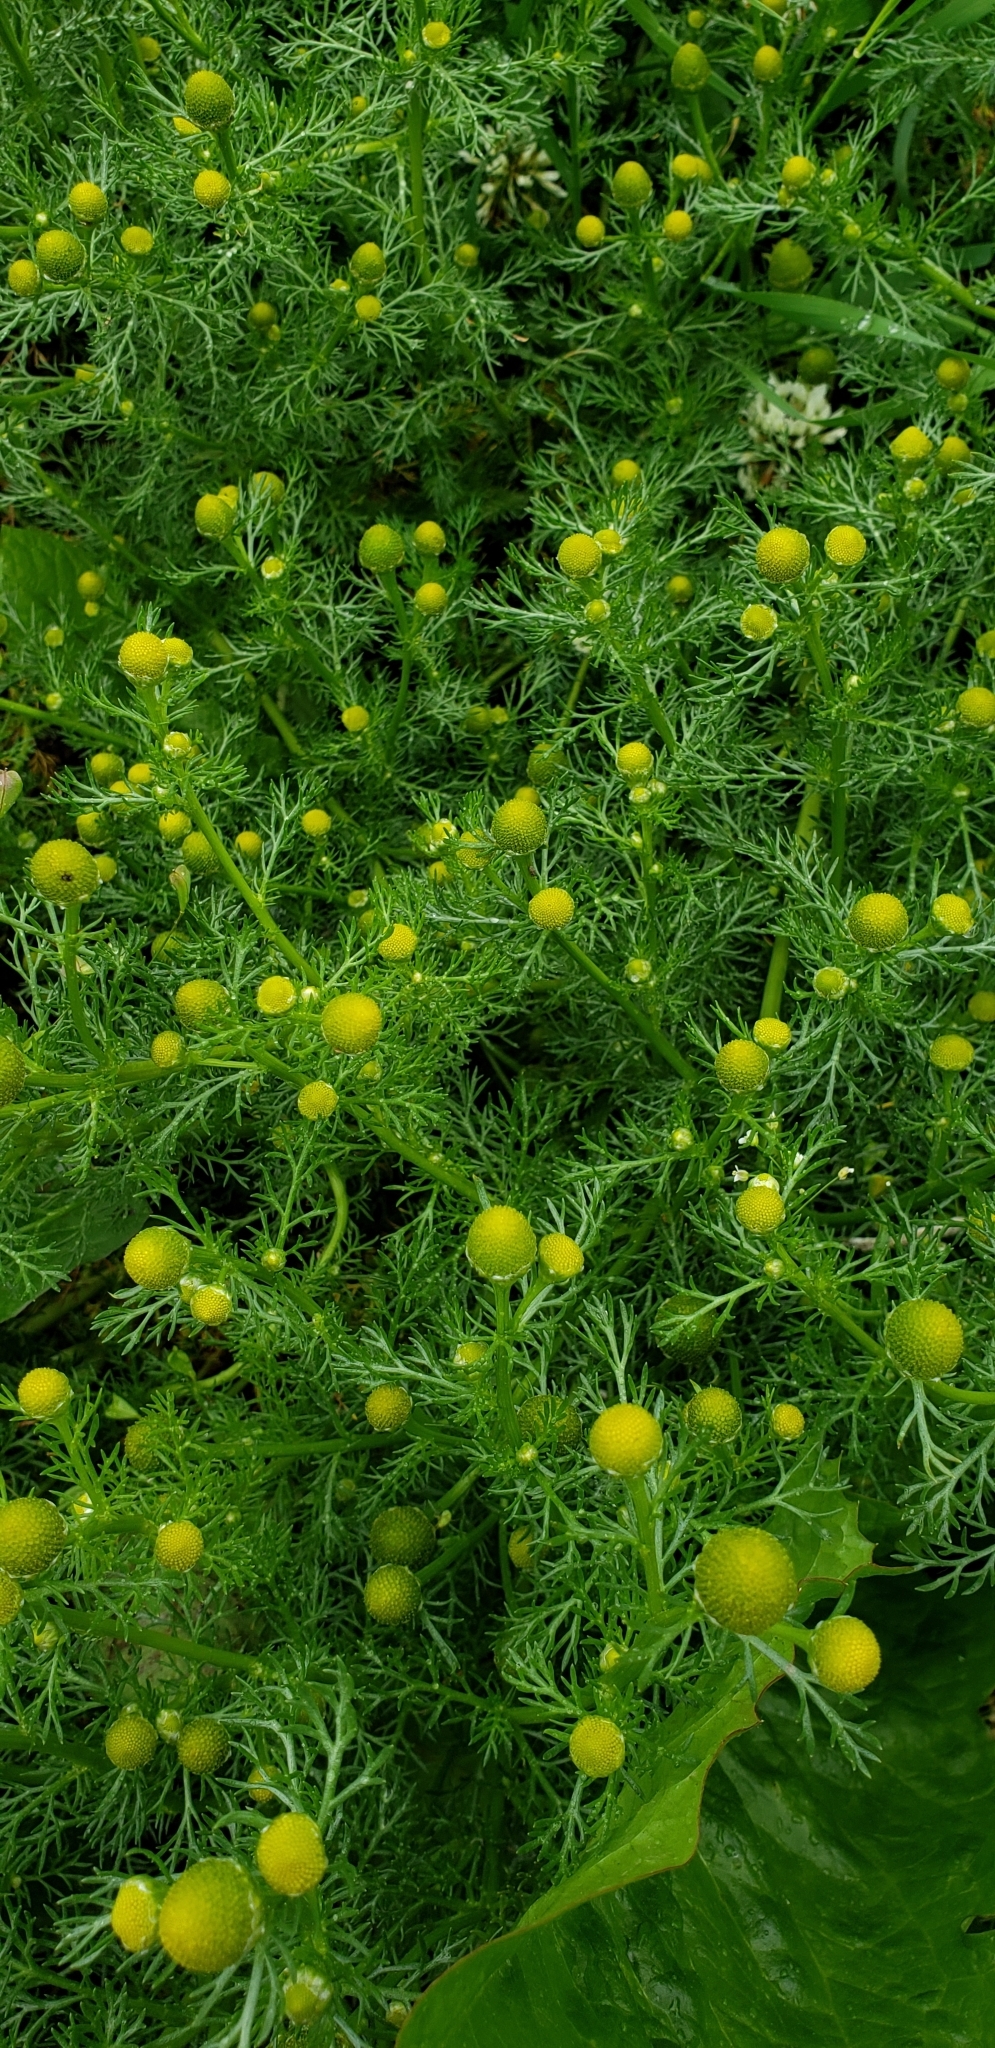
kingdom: Plantae
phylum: Tracheophyta
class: Magnoliopsida
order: Asterales
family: Asteraceae
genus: Matricaria
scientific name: Matricaria discoidea
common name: Disc mayweed
